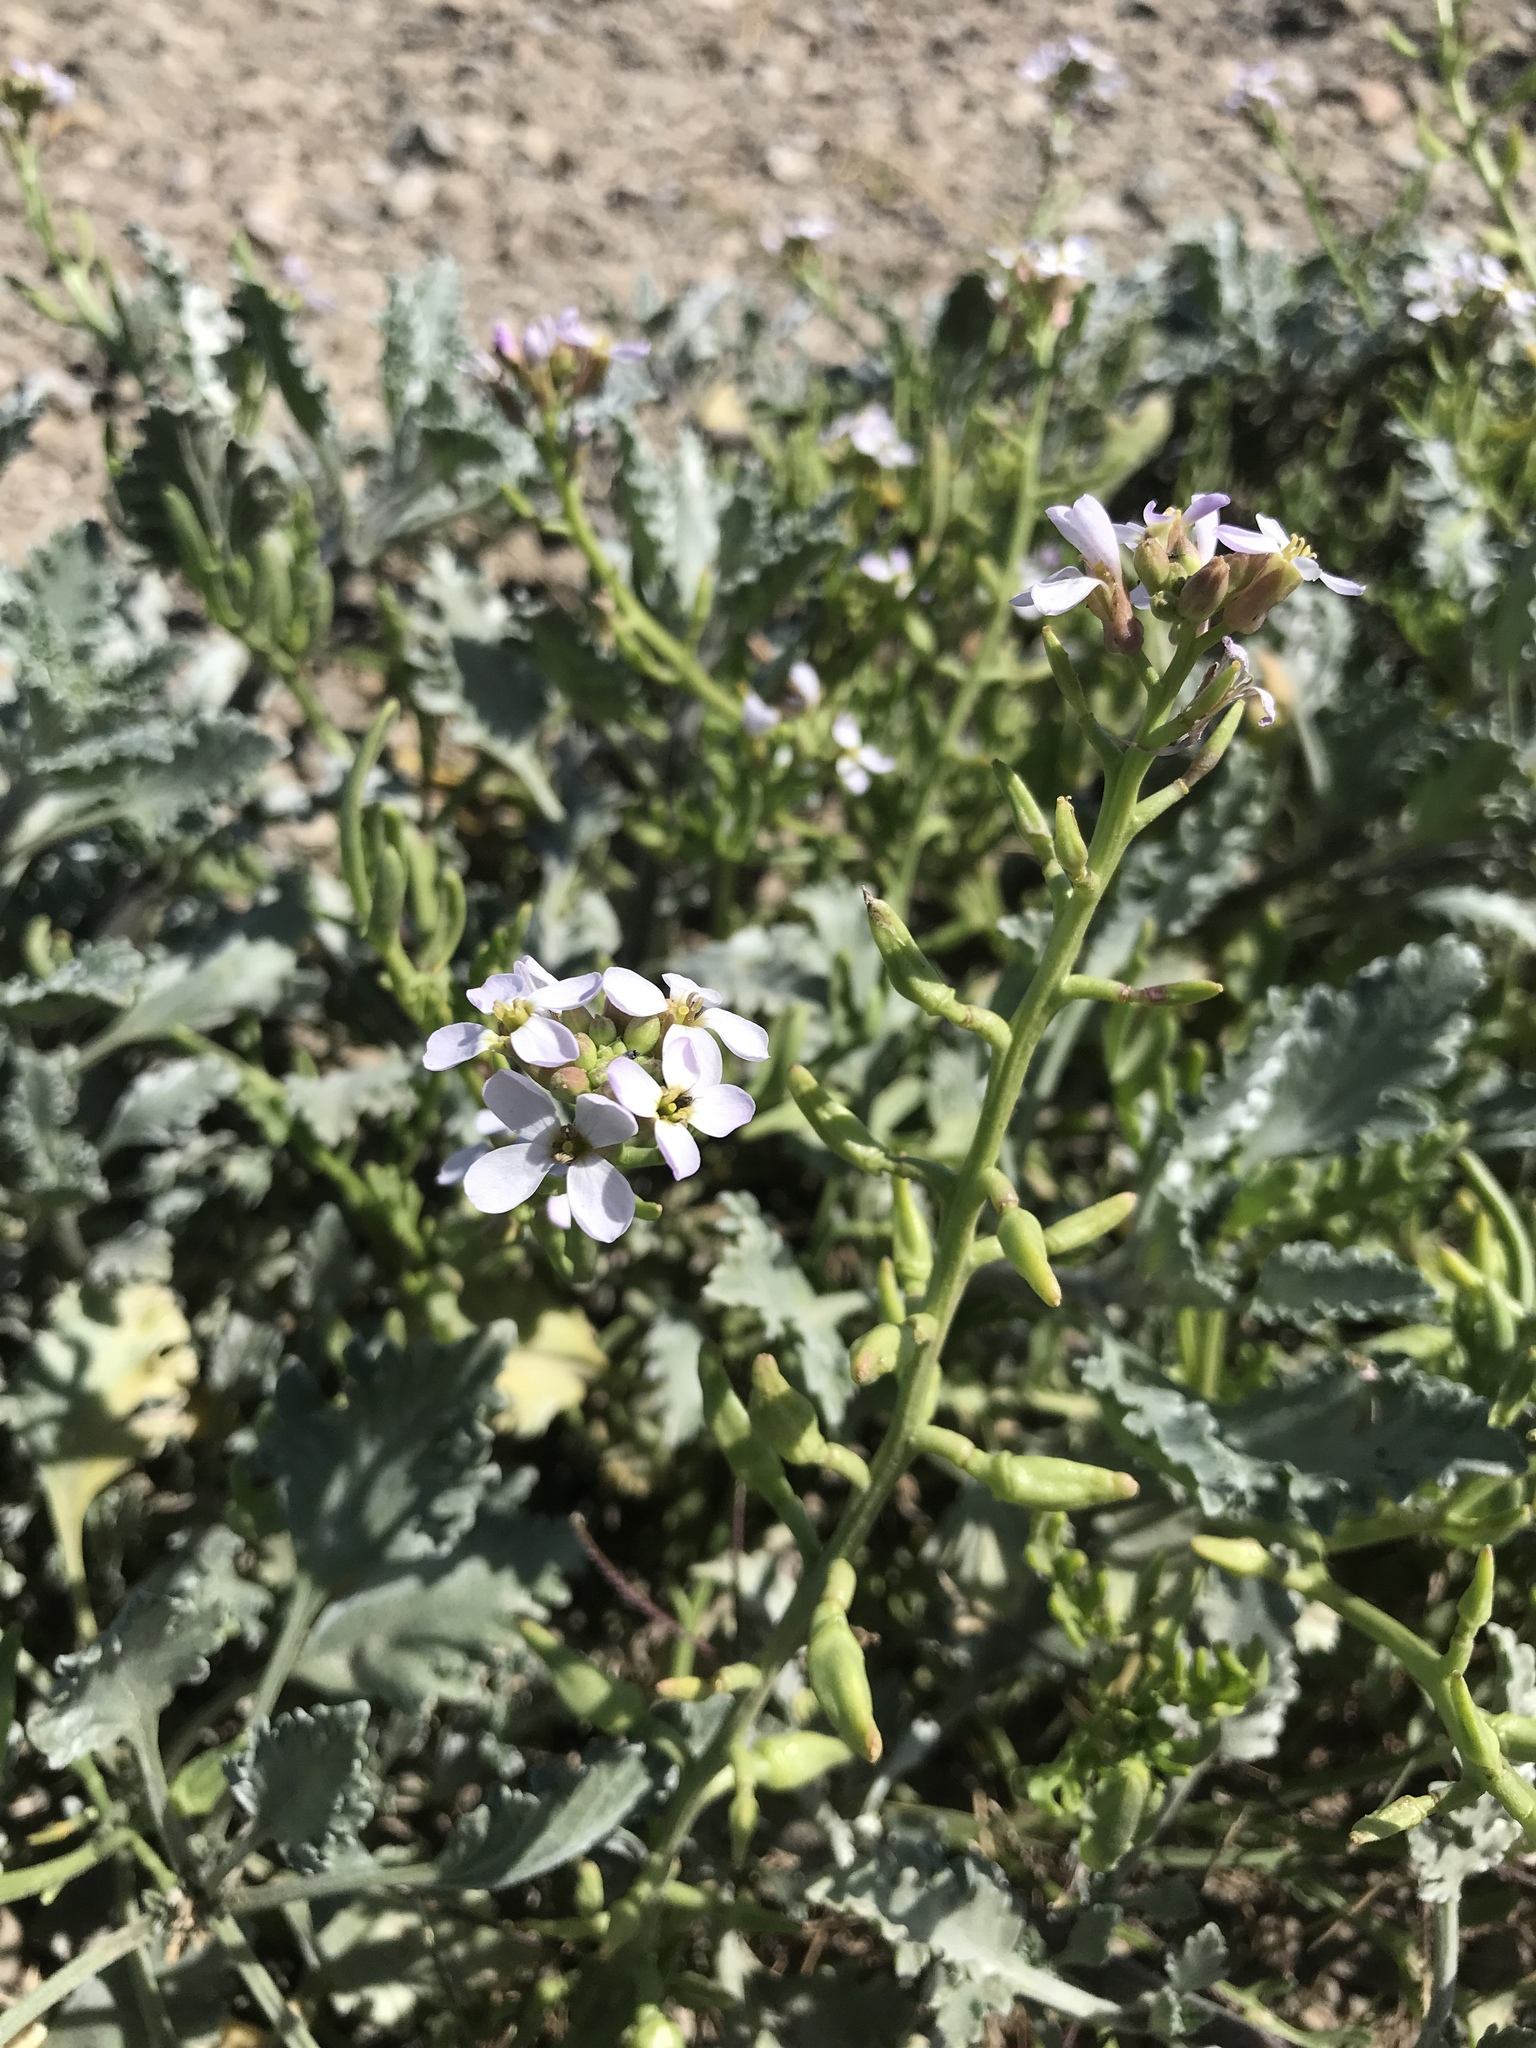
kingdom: Plantae
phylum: Tracheophyta
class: Magnoliopsida
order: Brassicales
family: Brassicaceae
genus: Cakile
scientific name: Cakile maritima
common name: Sea rocket
